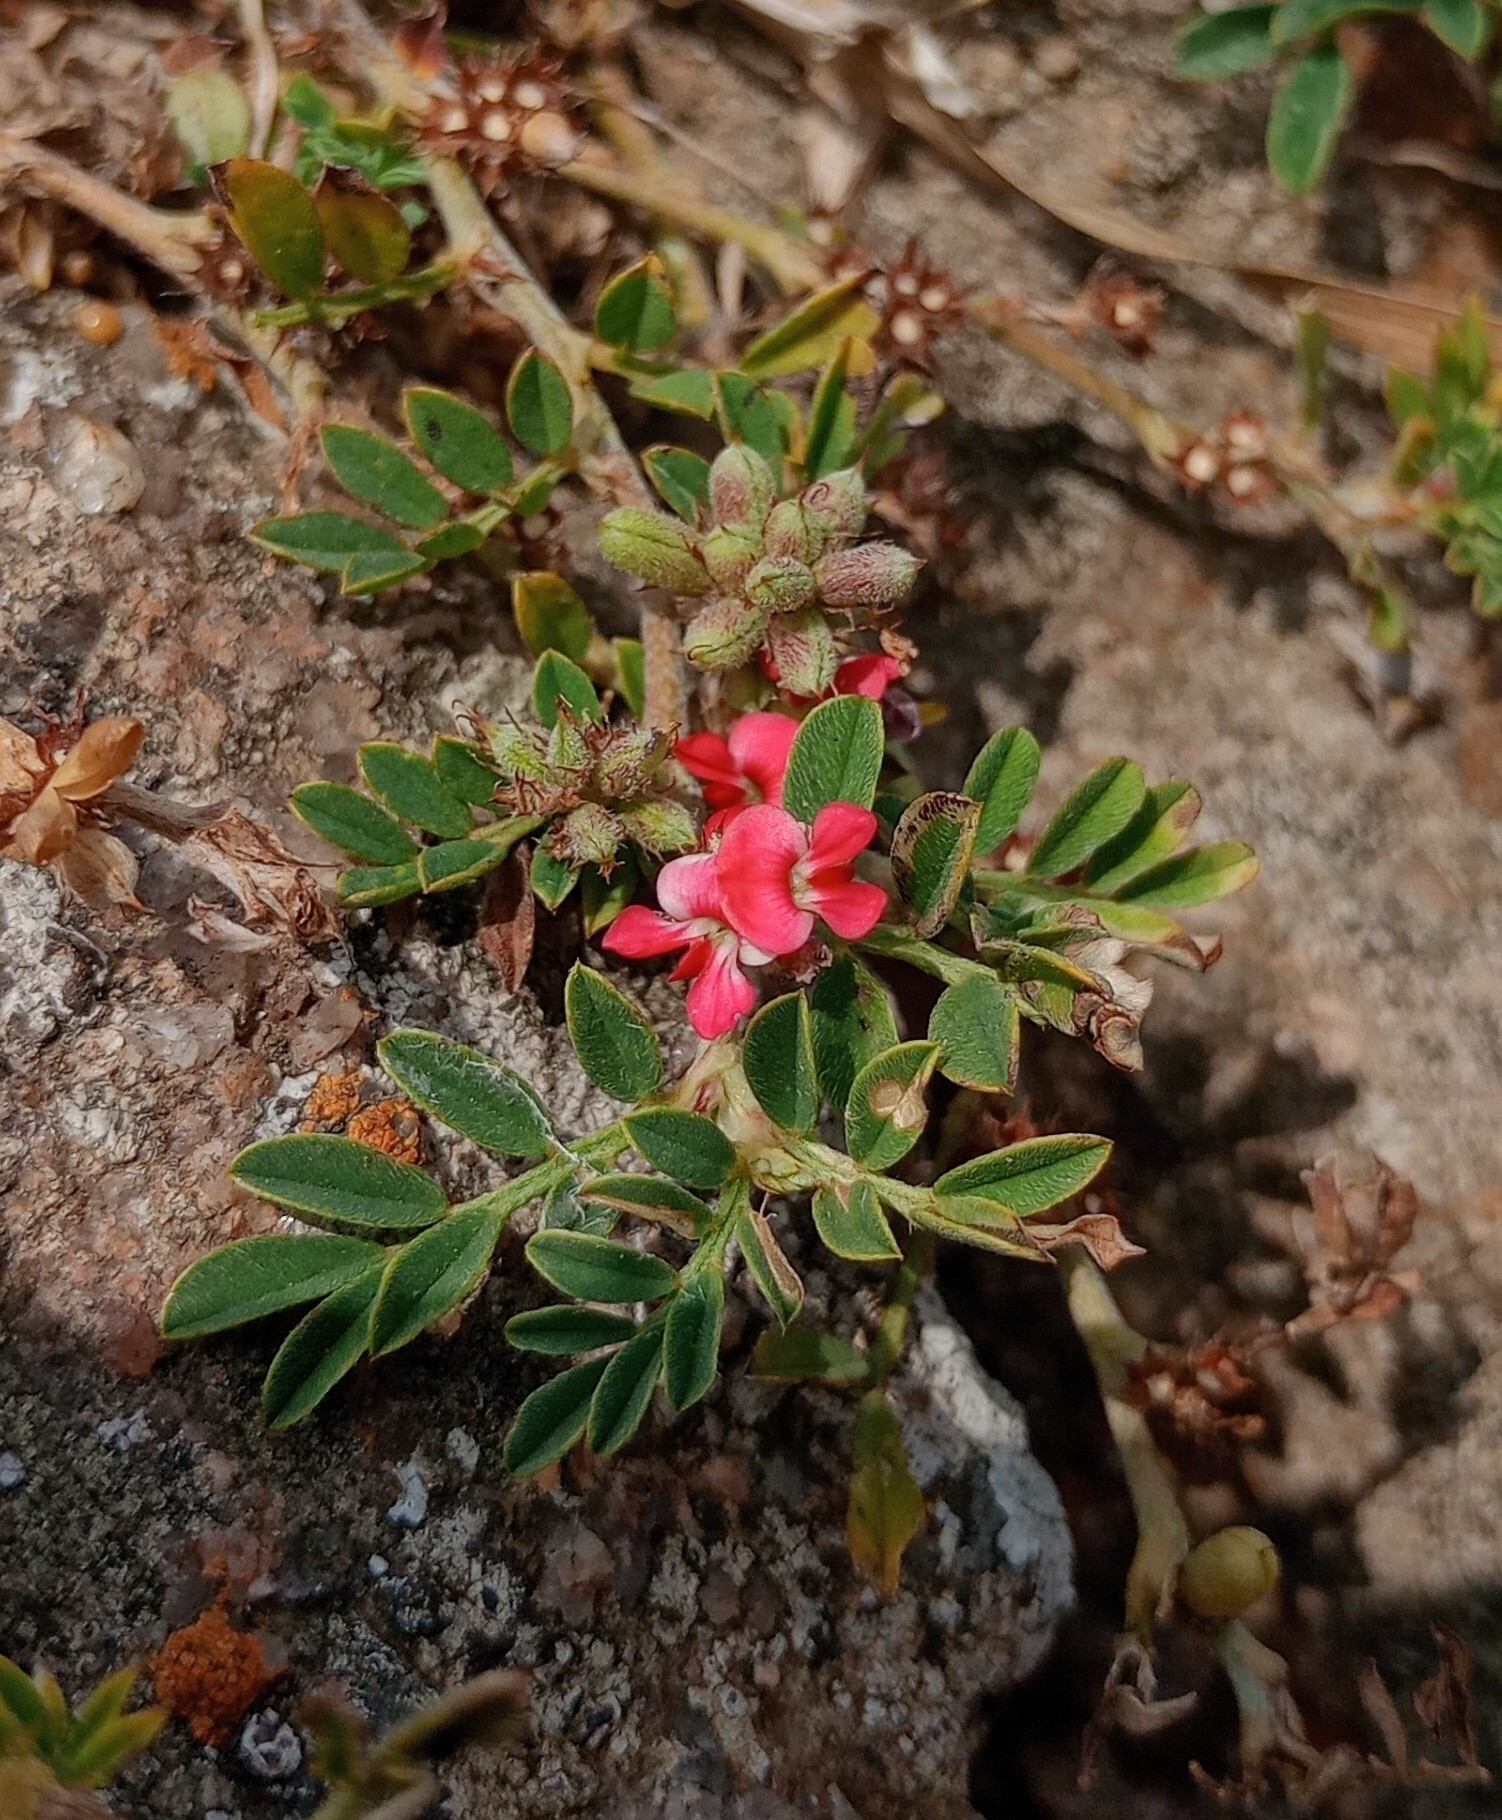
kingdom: Plantae
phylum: Tracheophyta
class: Magnoliopsida
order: Fabales
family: Fabaceae
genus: Indigofera
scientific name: Indigofera linnaei
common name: Nine-leaf indigo
